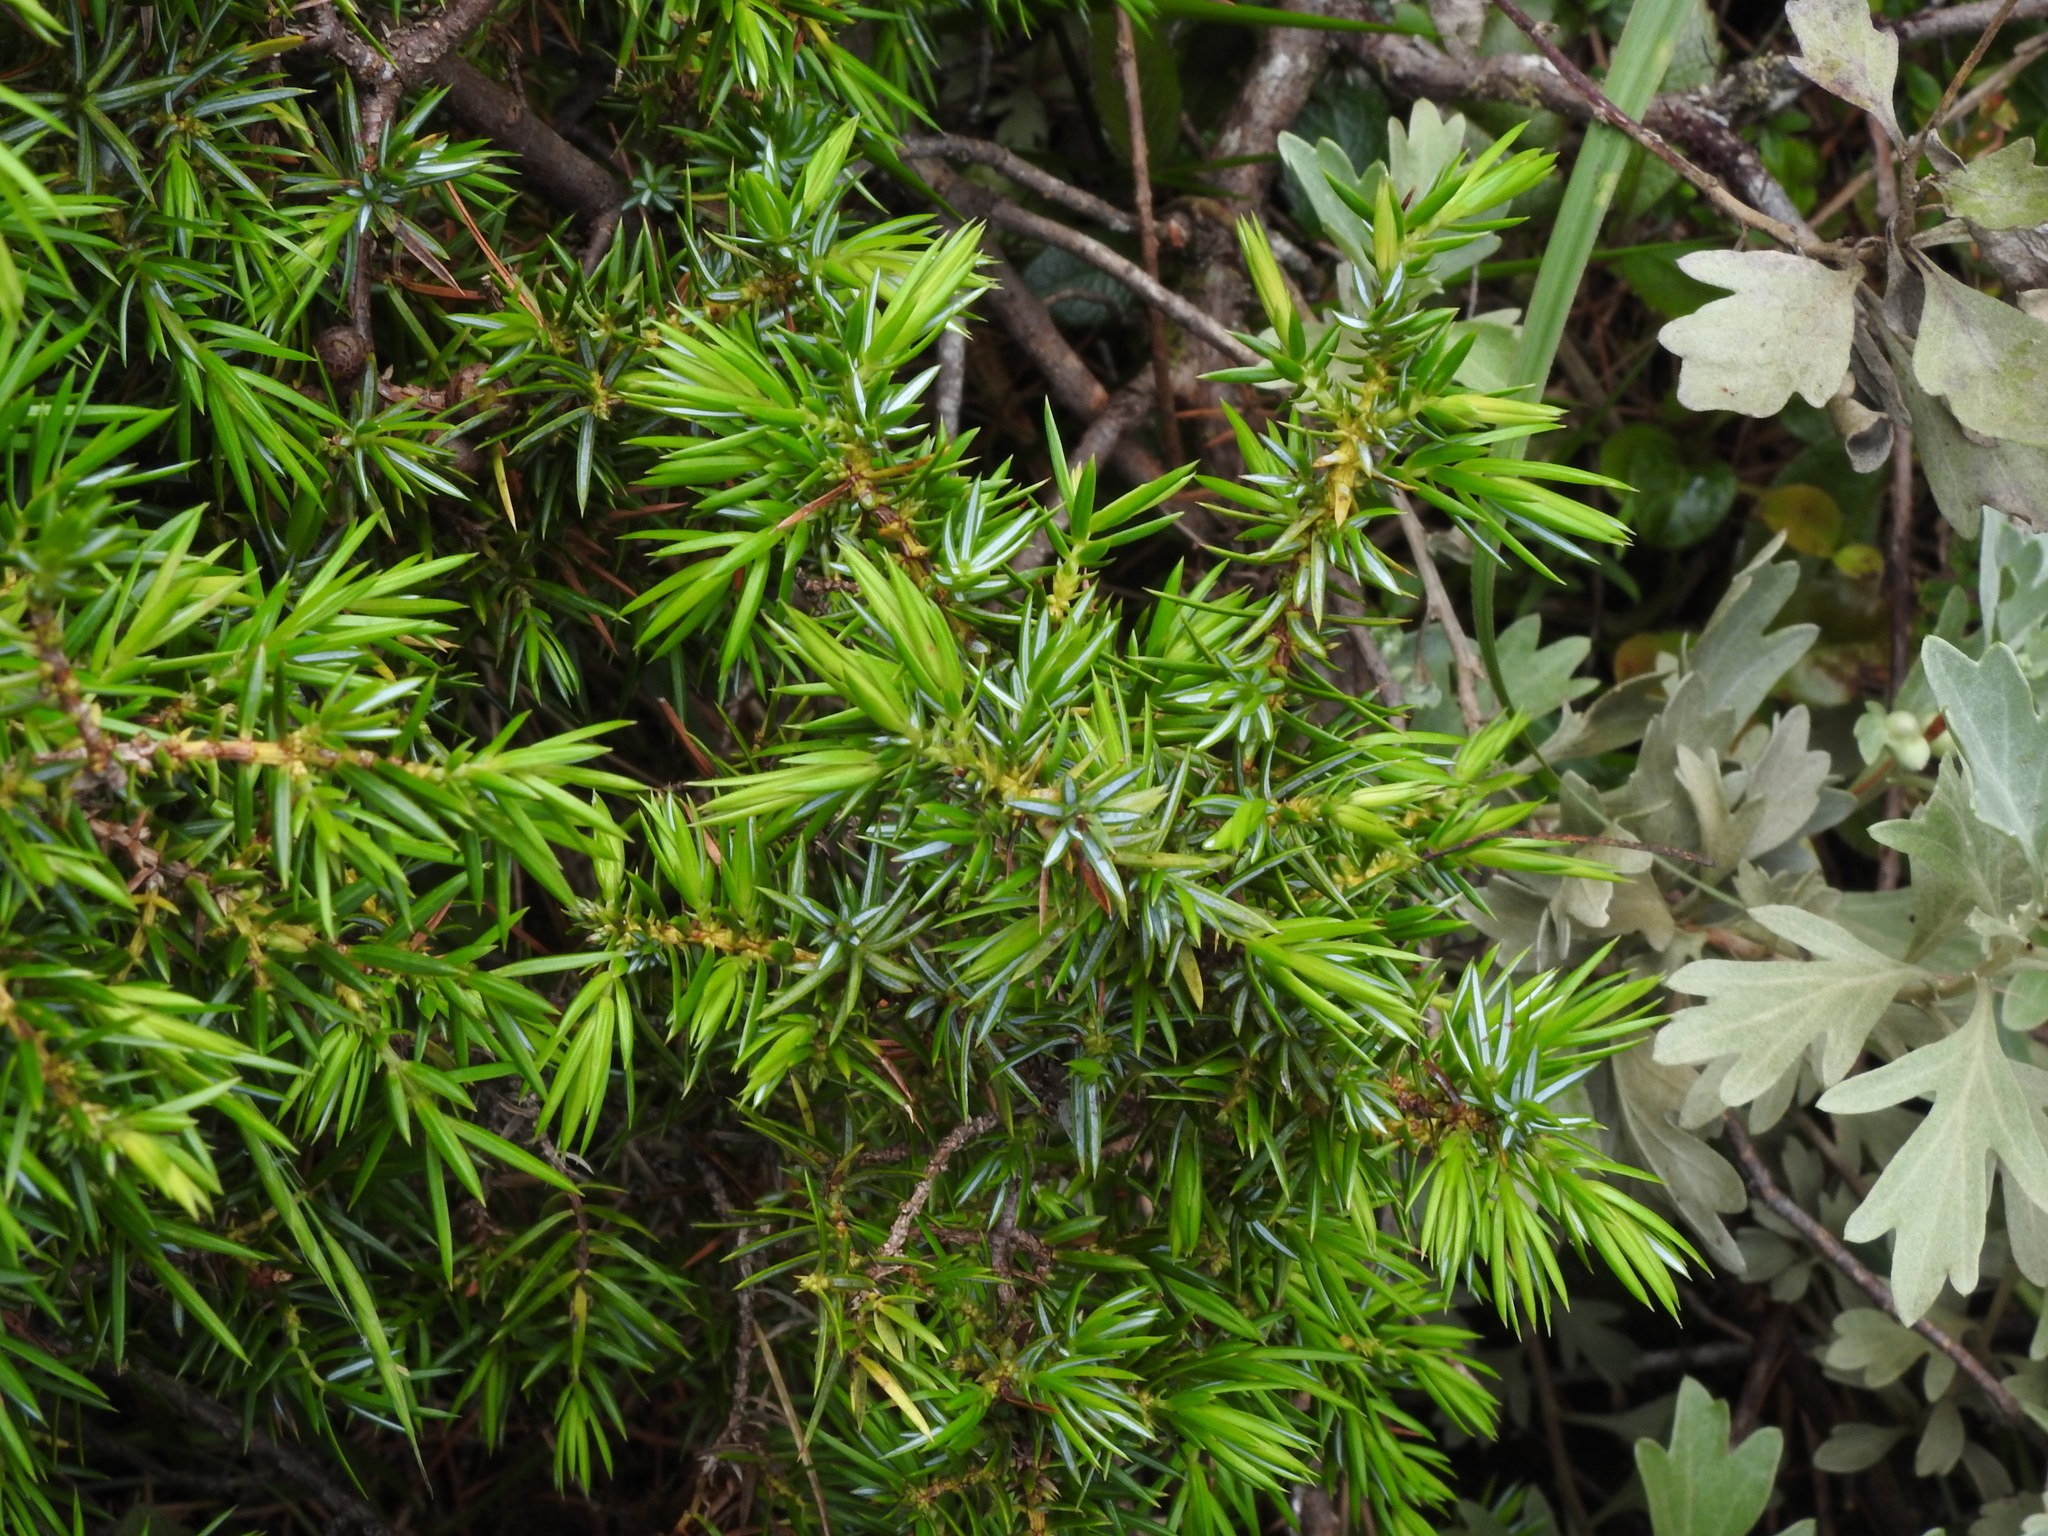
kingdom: Plantae
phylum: Tracheophyta
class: Pinopsida
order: Pinales
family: Cupressaceae
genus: Juniperus
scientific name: Juniperus formosana
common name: Formosan juniper
